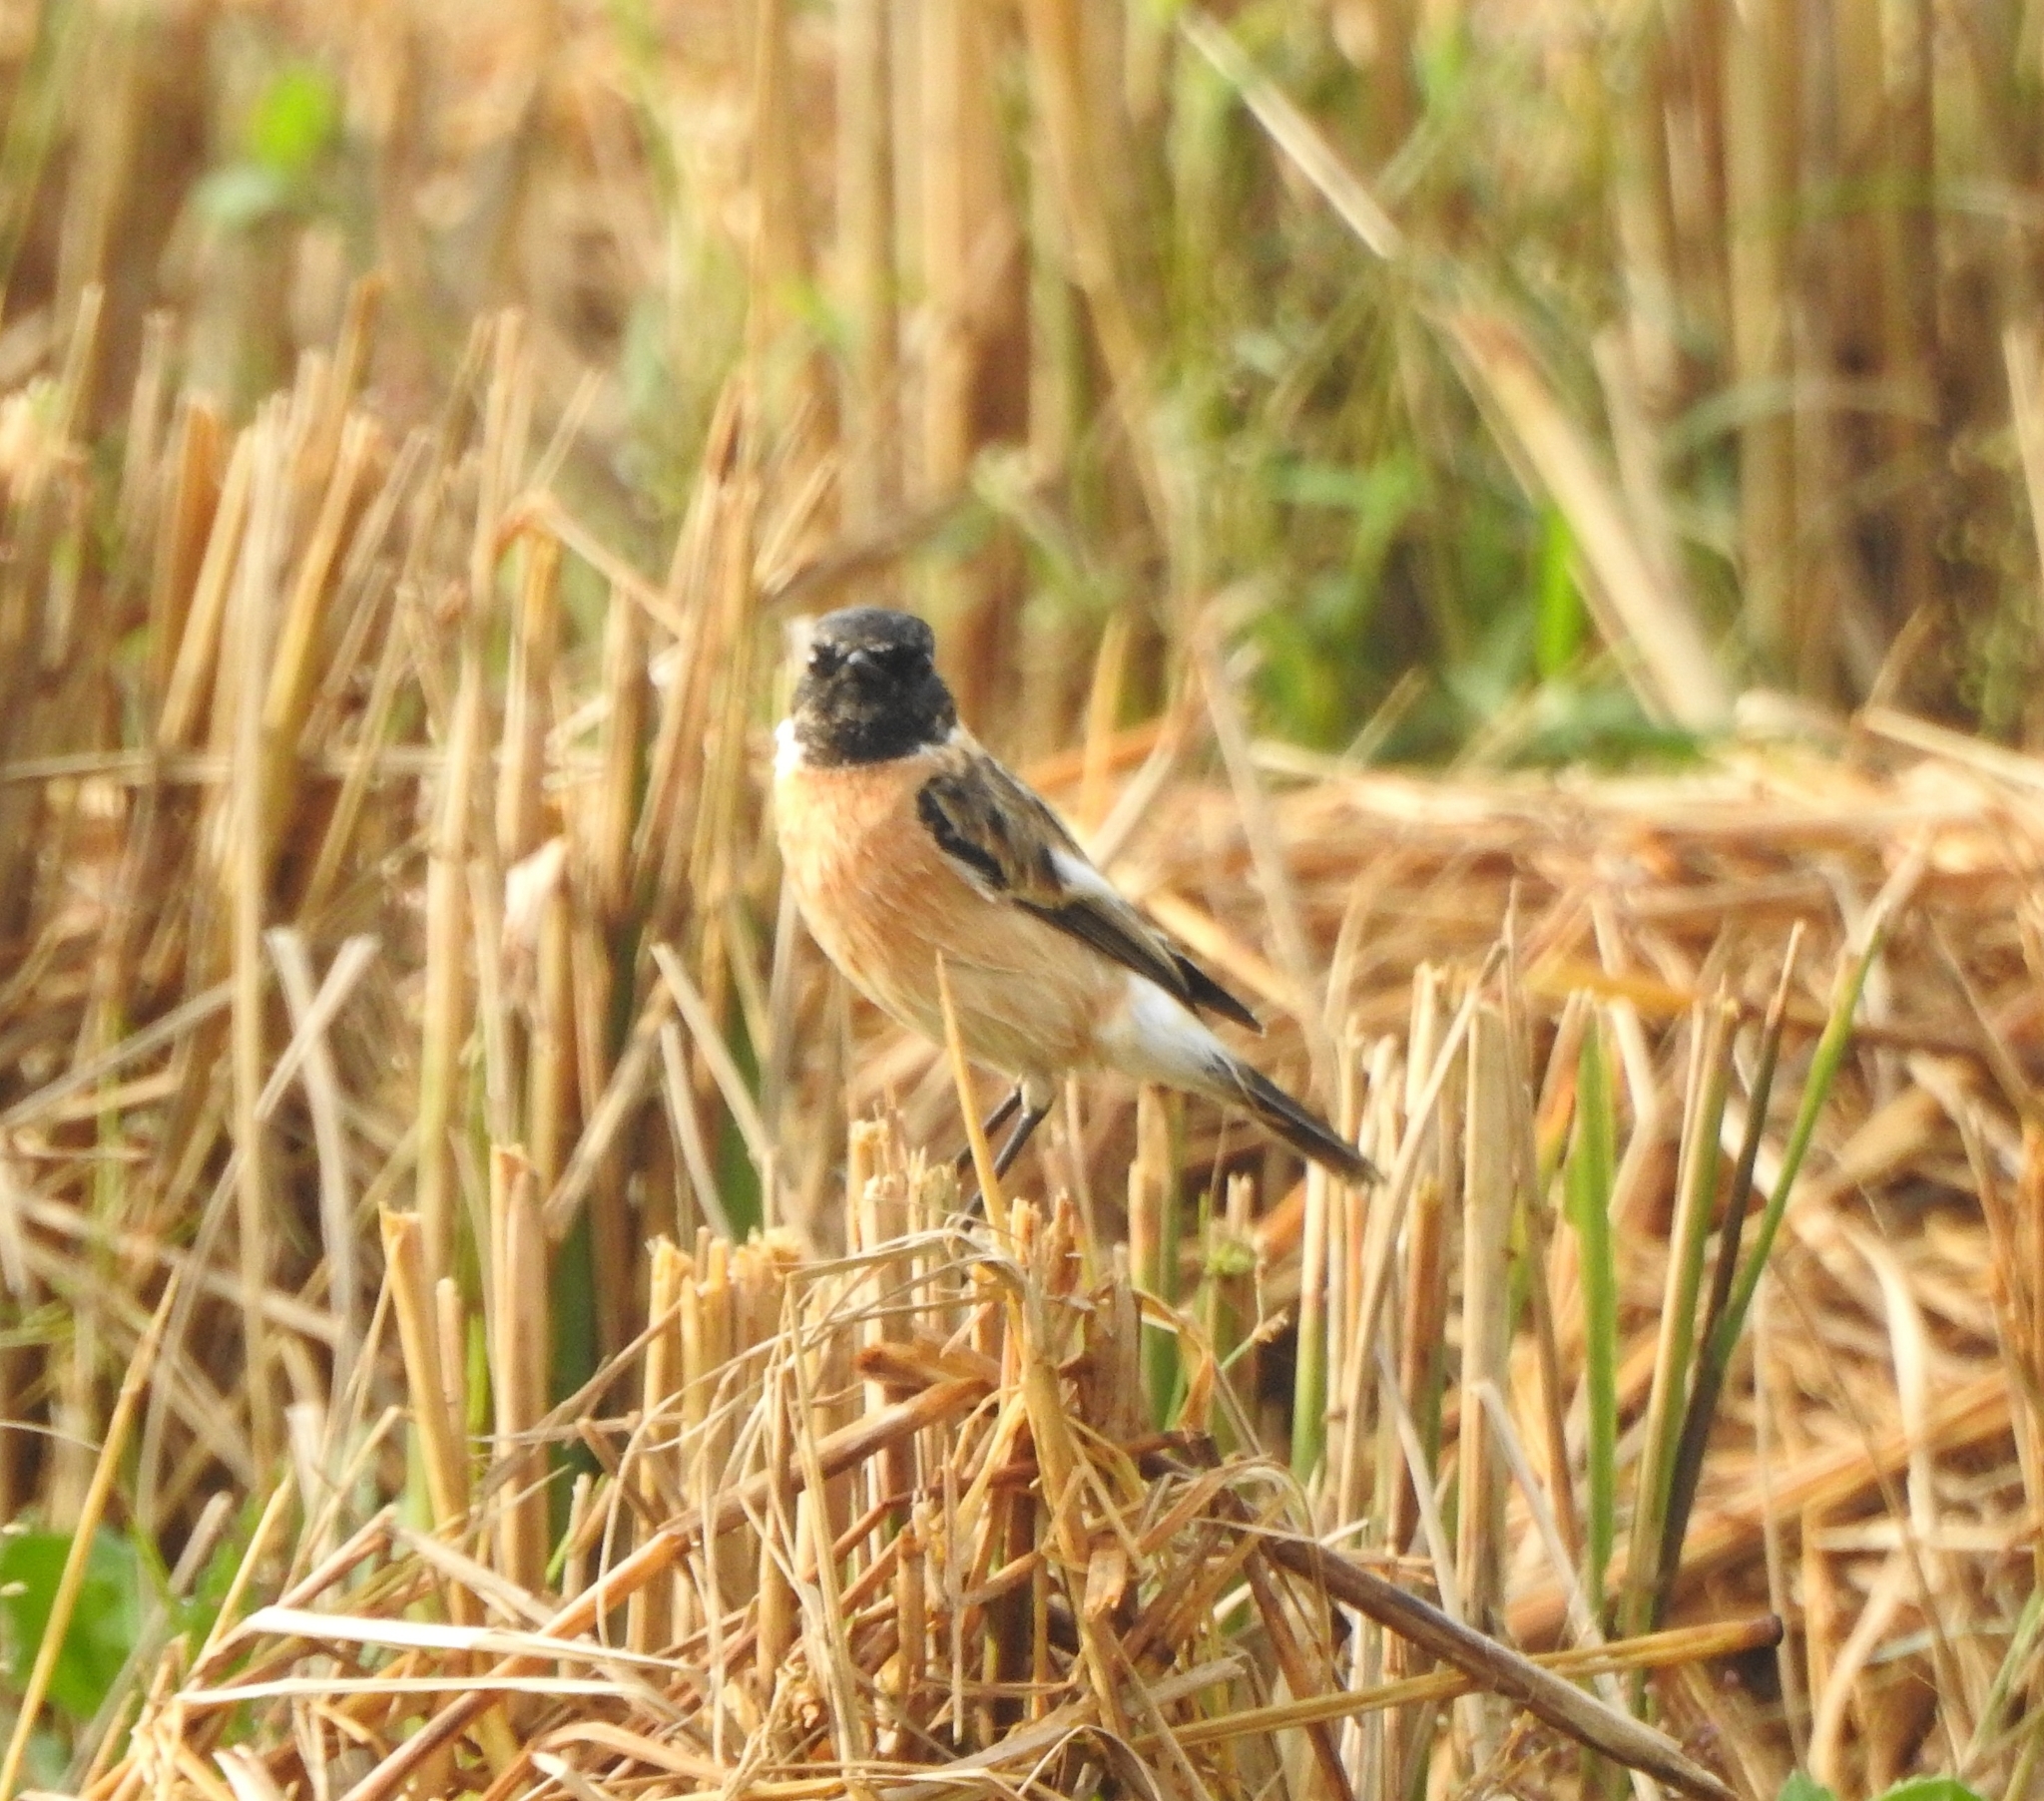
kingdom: Animalia
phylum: Chordata
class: Aves
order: Passeriformes
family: Muscicapidae
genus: Saxicola
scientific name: Saxicola maurus
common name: Siberian stonechat
